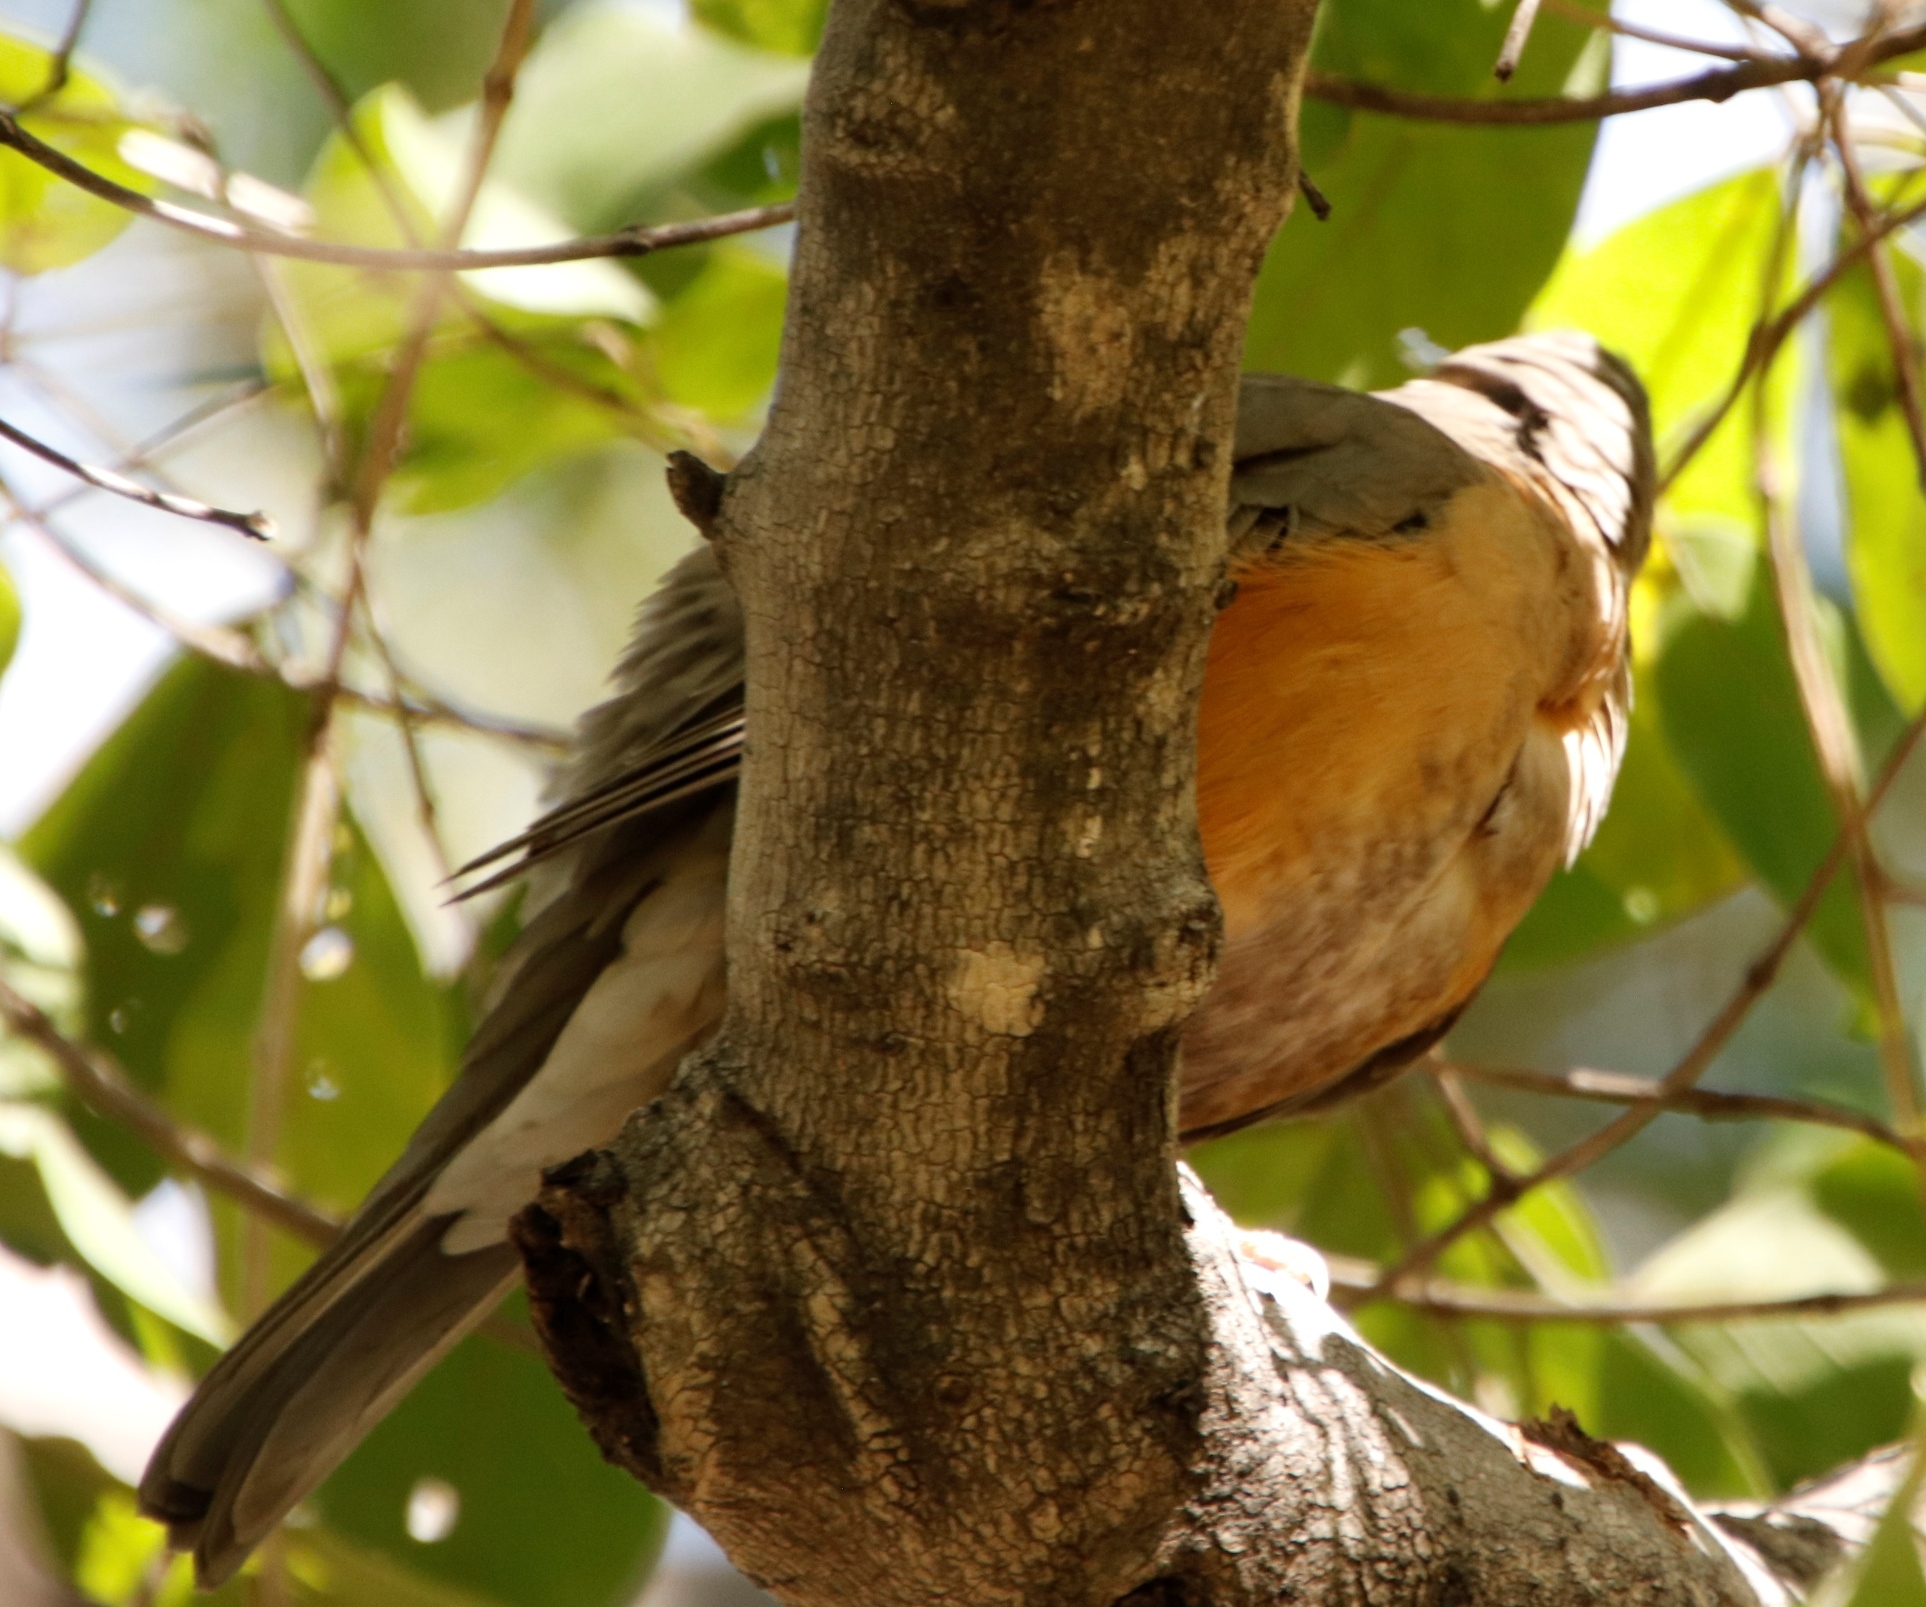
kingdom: Animalia
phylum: Chordata
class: Aves
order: Passeriformes
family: Turdidae
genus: Turdus
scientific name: Turdus libonyana
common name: Kurrichane thrush
